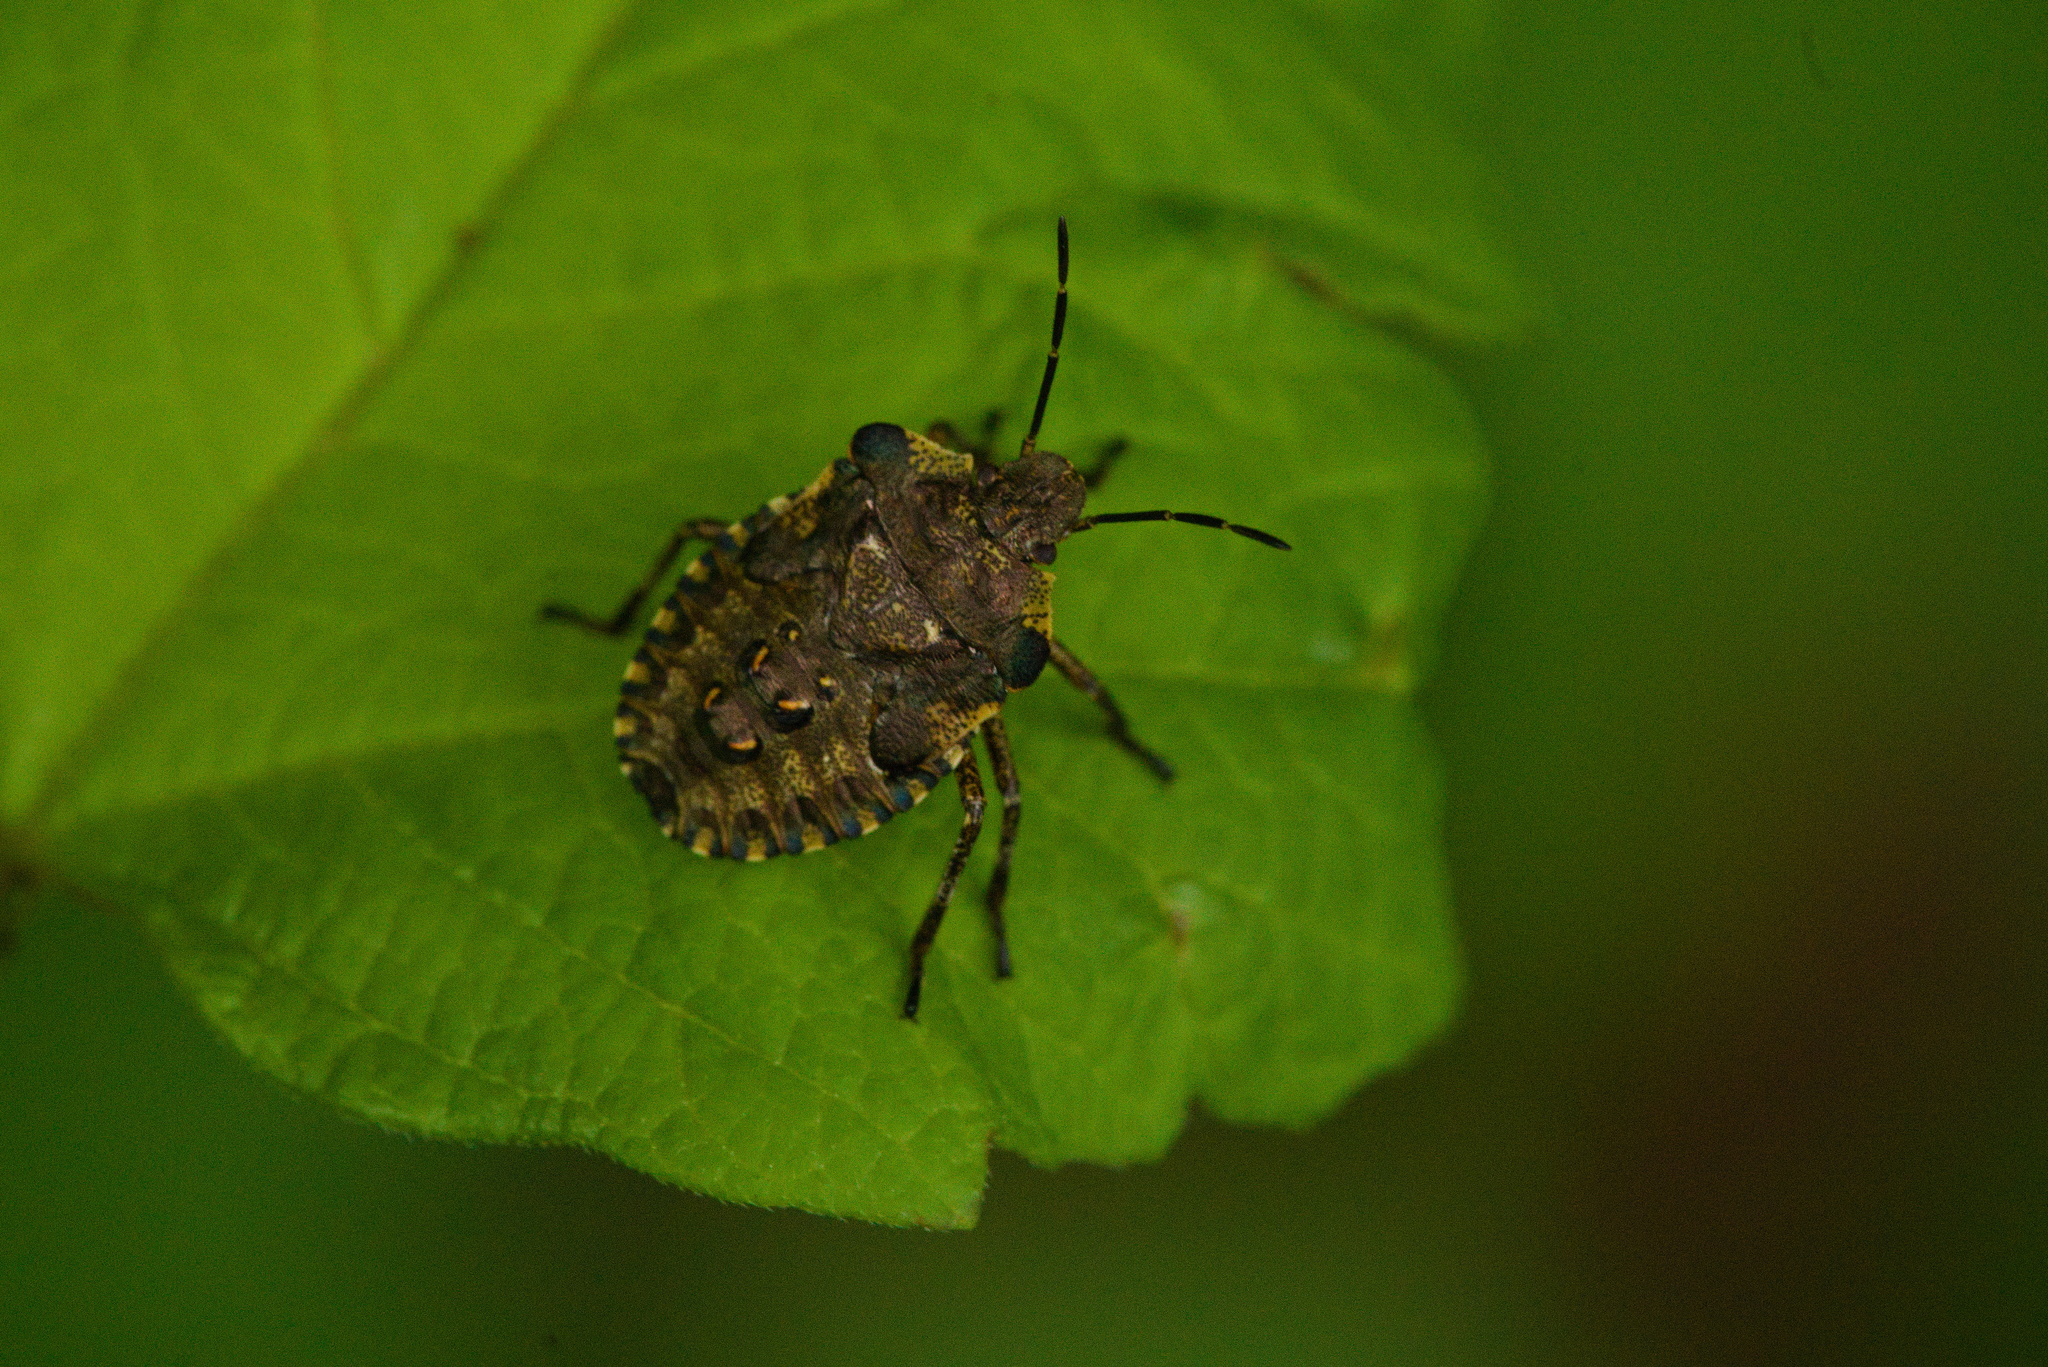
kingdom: Animalia
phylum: Arthropoda
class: Insecta
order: Hemiptera
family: Pentatomidae
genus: Pentatoma
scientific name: Pentatoma rufipes
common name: Forest bug
